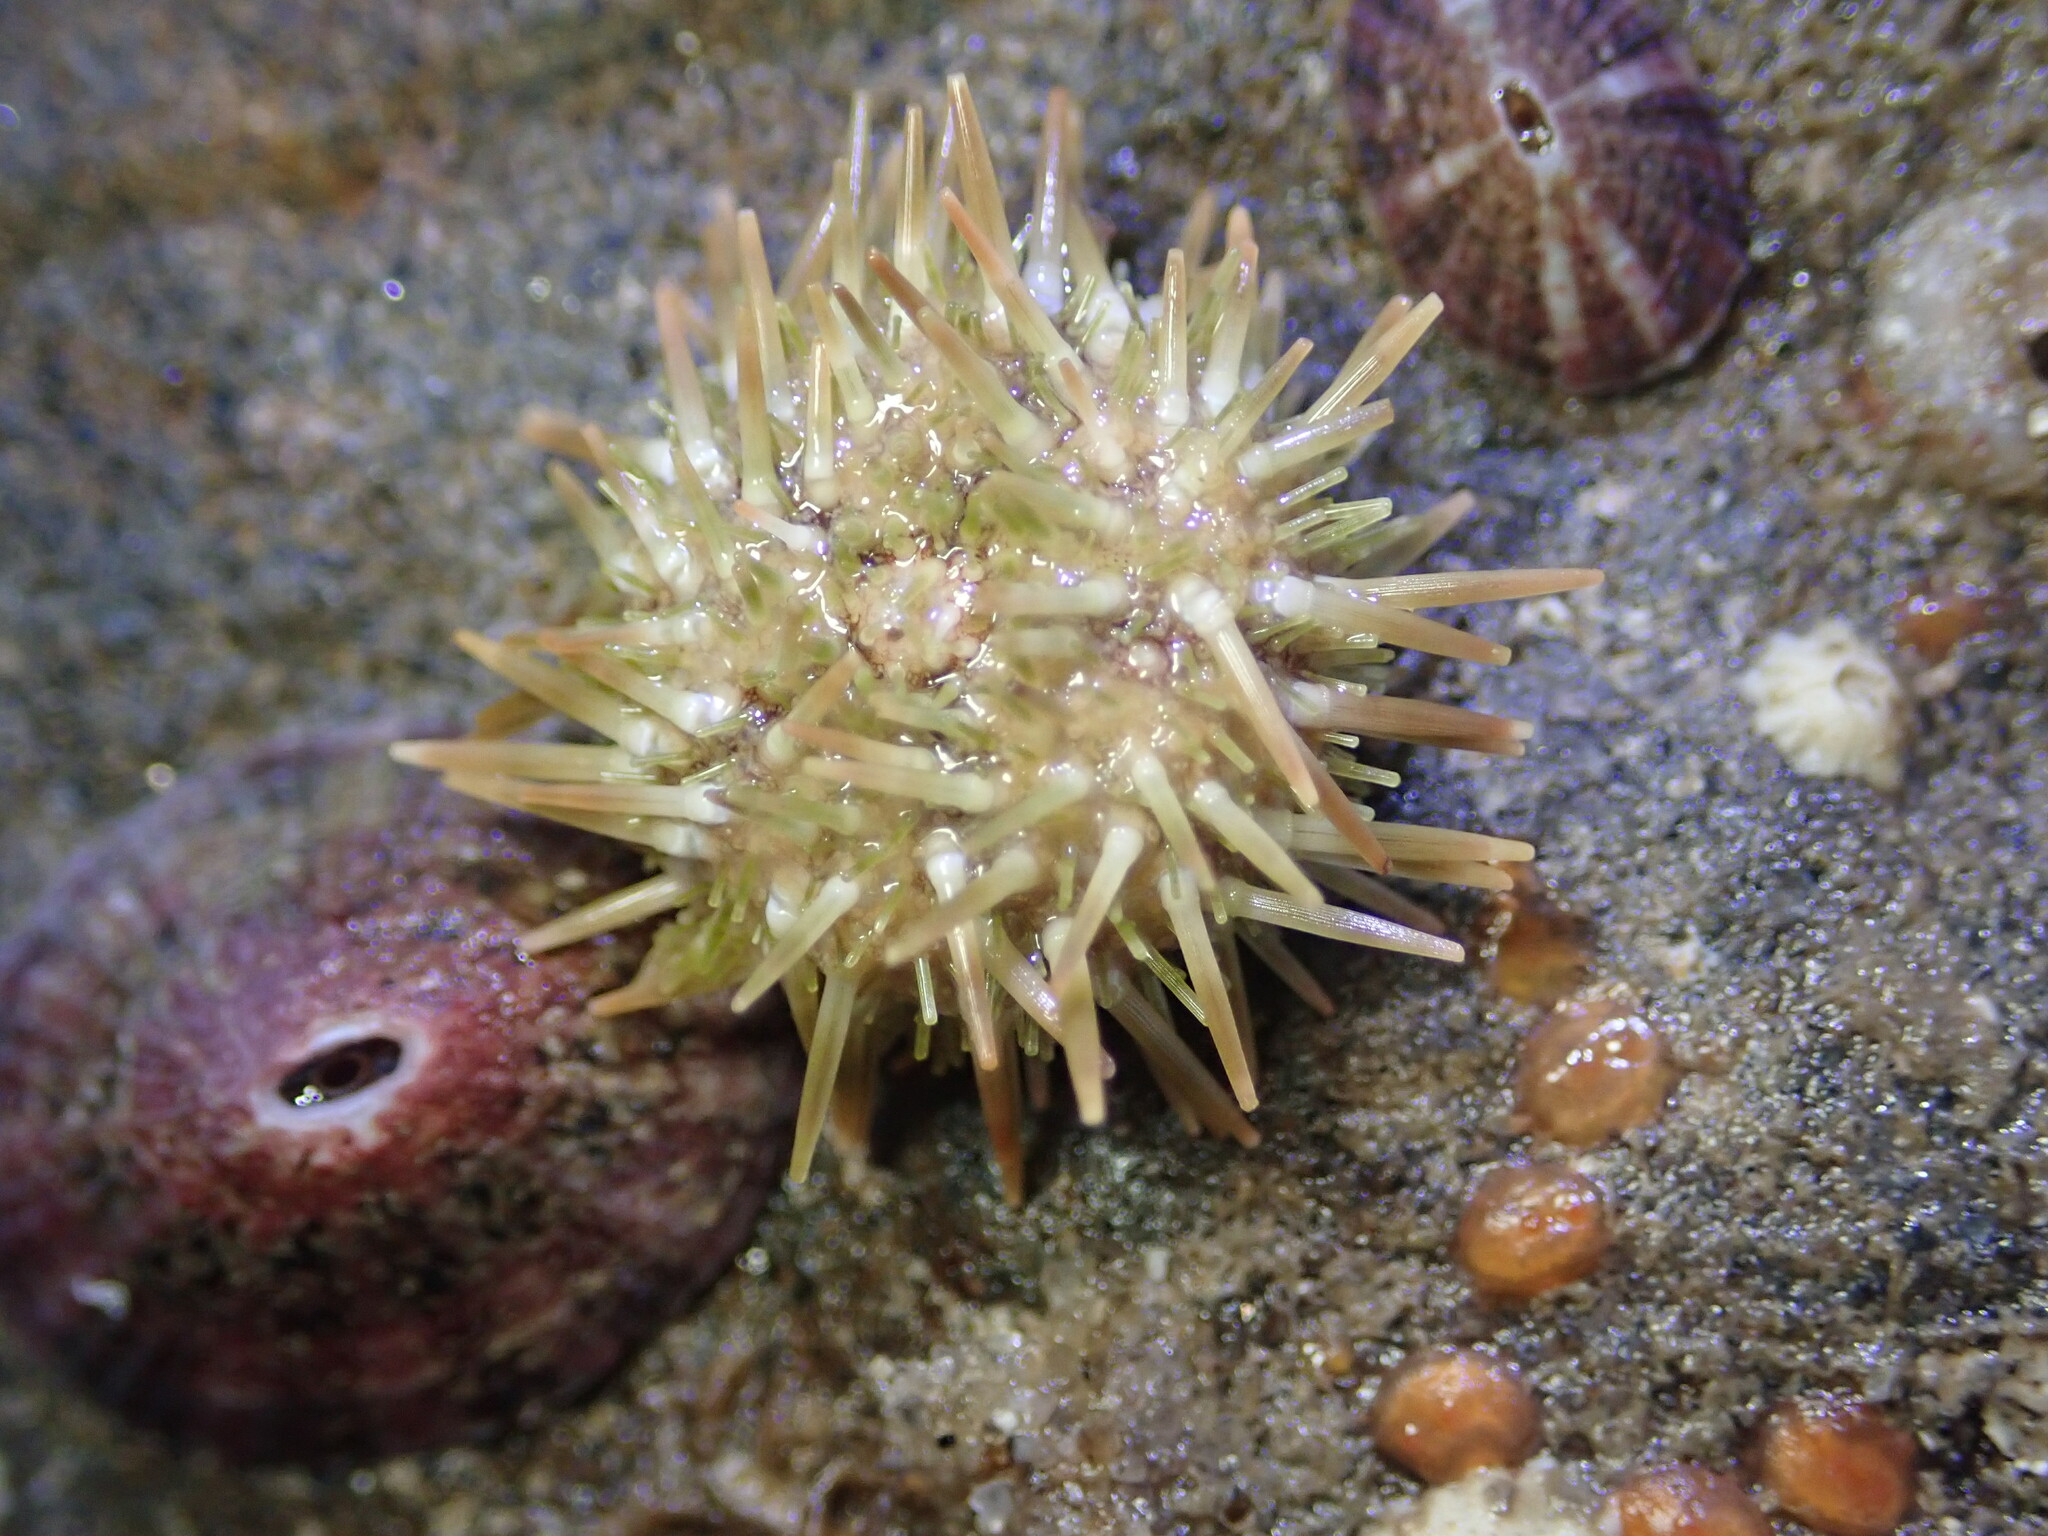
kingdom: Animalia
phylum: Echinodermata
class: Echinoidea
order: Camarodonta
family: Strongylocentrotidae
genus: Strongylocentrotus
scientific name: Strongylocentrotus purpuratus
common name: Purple sea urchin
